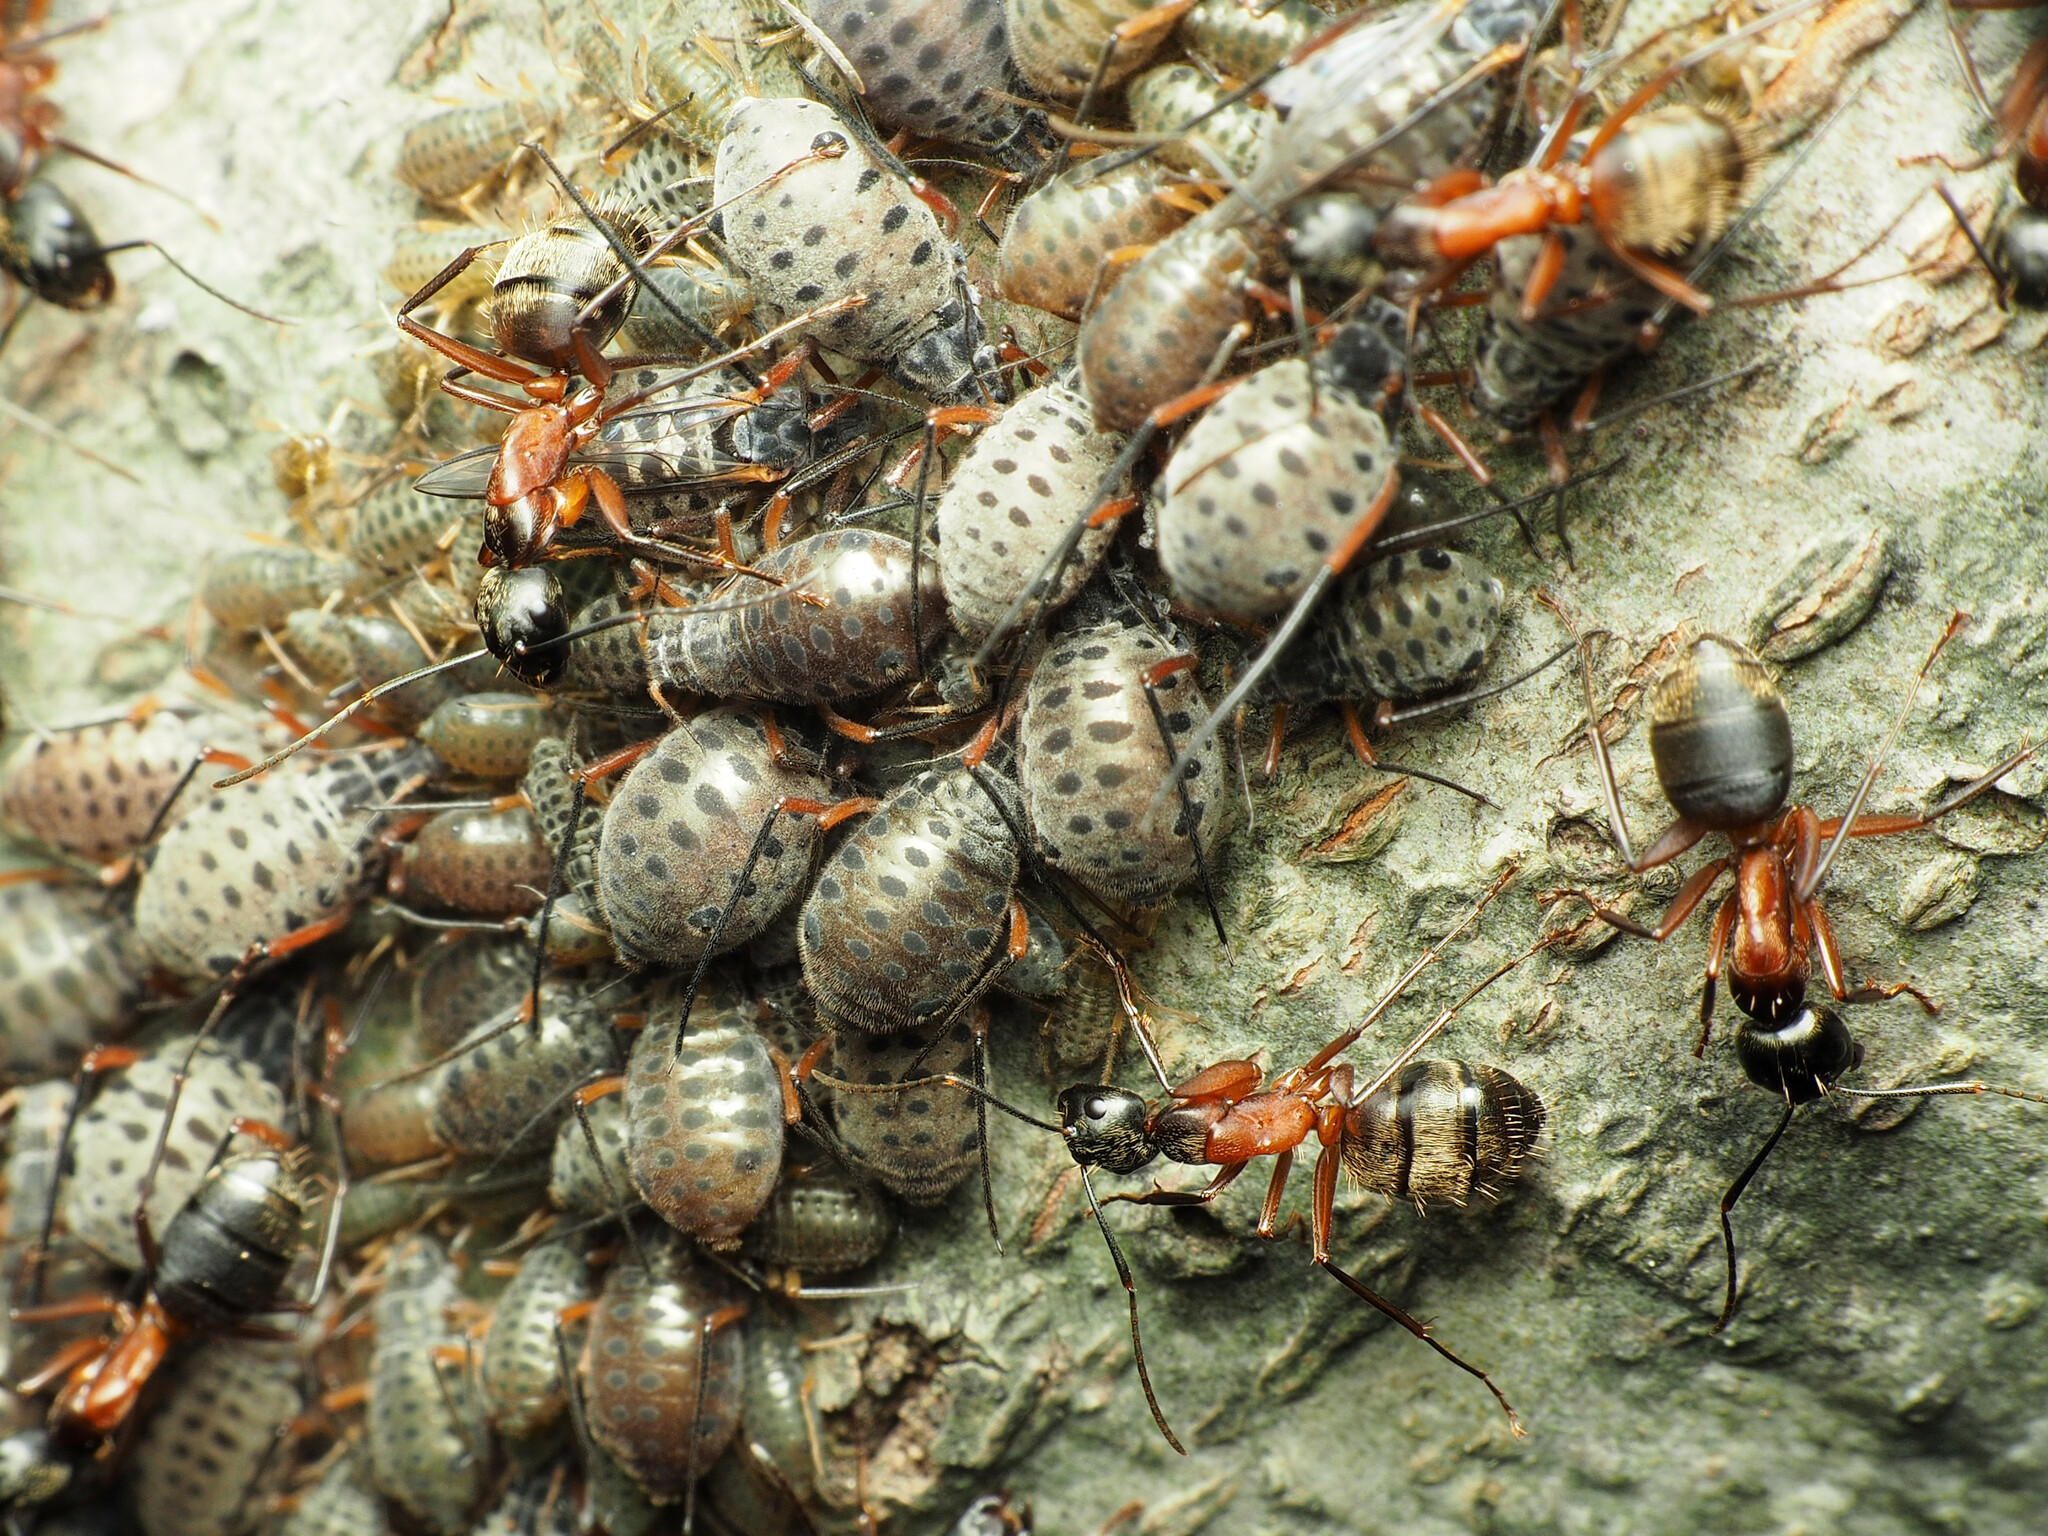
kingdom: Animalia
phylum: Arthropoda
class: Insecta
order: Hemiptera
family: Aphididae
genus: Longistigma
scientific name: Longistigma caryae
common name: Giant bark aphid
